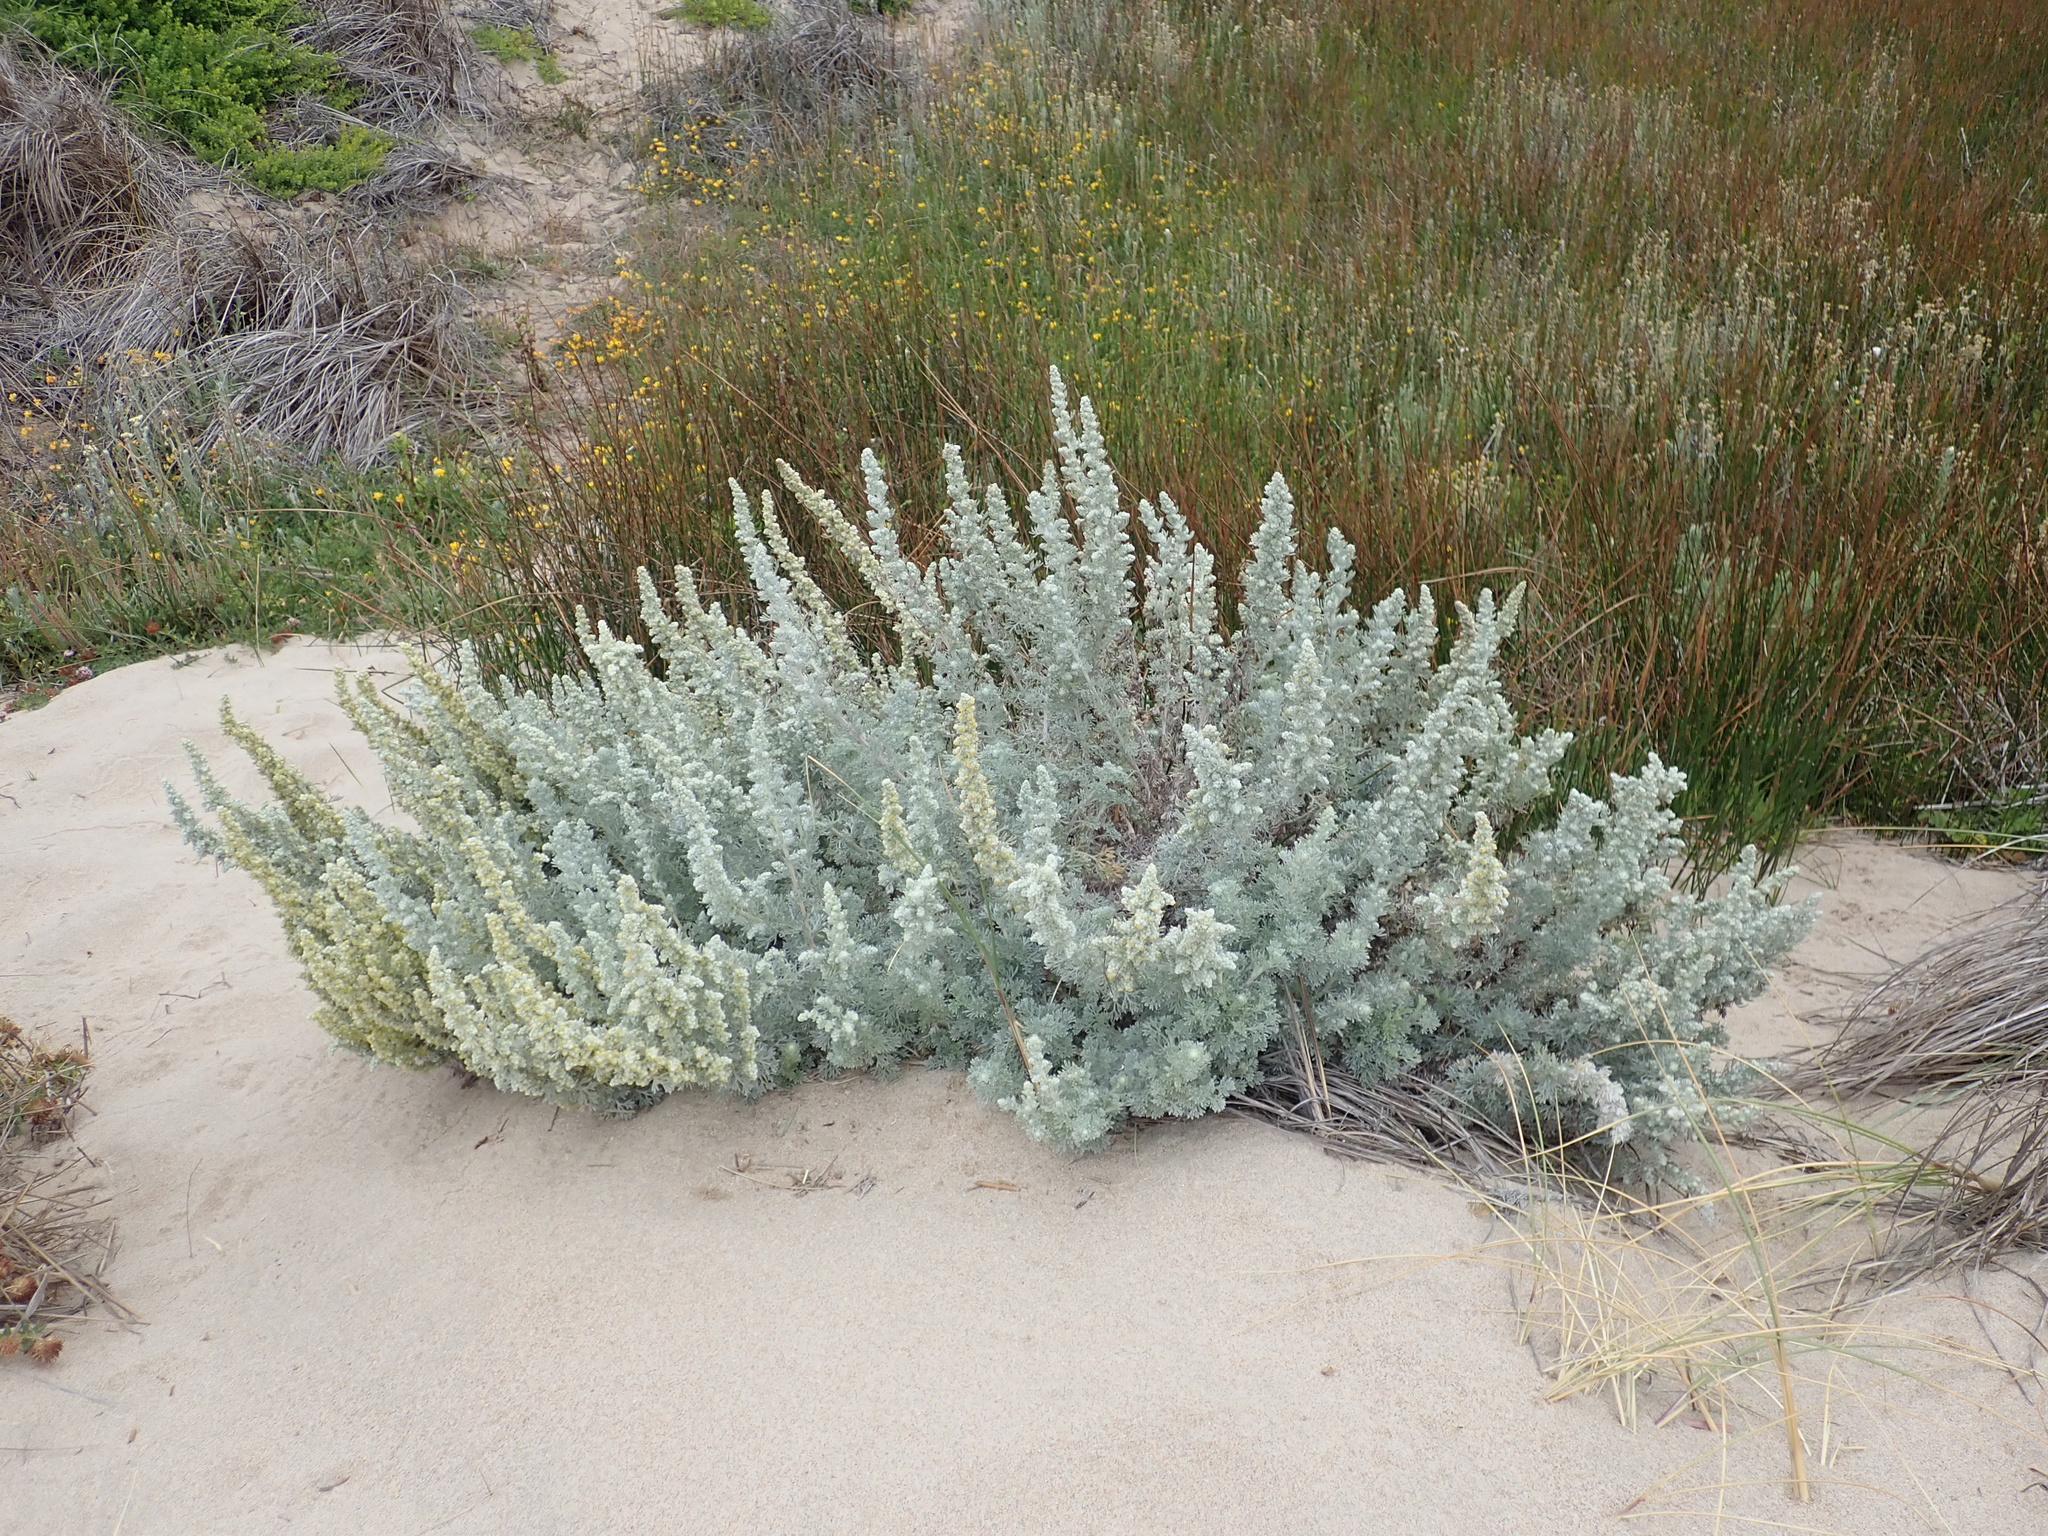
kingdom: Plantae
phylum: Tracheophyta
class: Magnoliopsida
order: Asterales
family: Asteraceae
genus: Artemisia
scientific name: Artemisia pycnocephala
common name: Coastal sagewort
